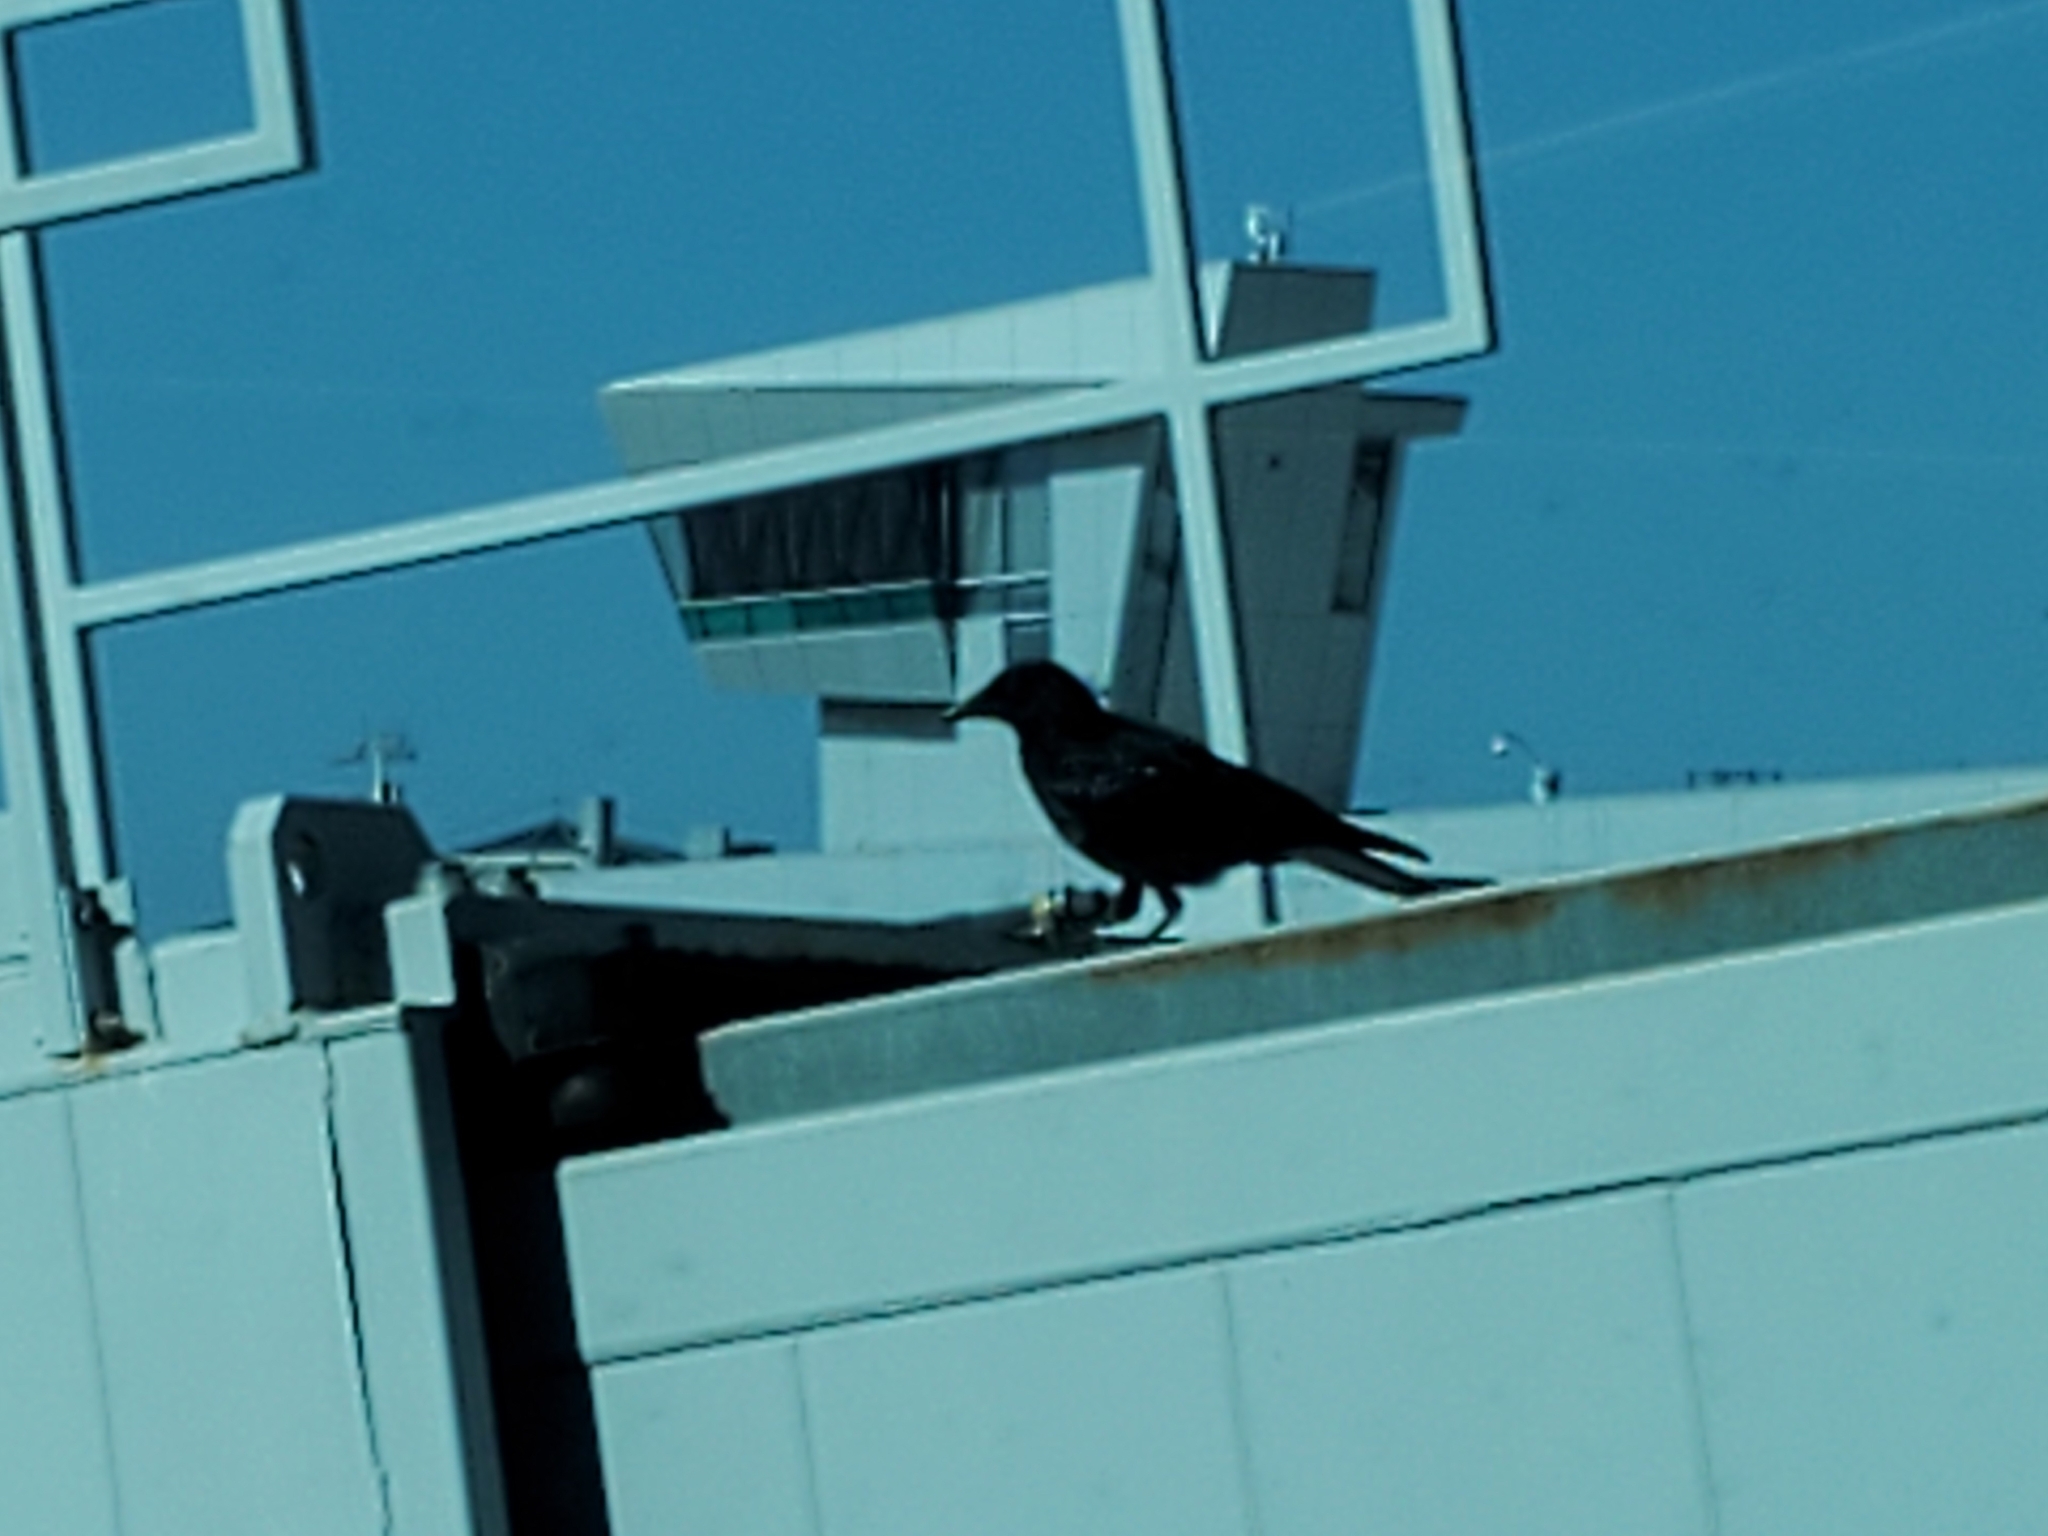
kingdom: Animalia
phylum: Chordata
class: Aves
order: Passeriformes
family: Corvidae
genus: Corvus
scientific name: Corvus brachyrhynchos
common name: American crow
